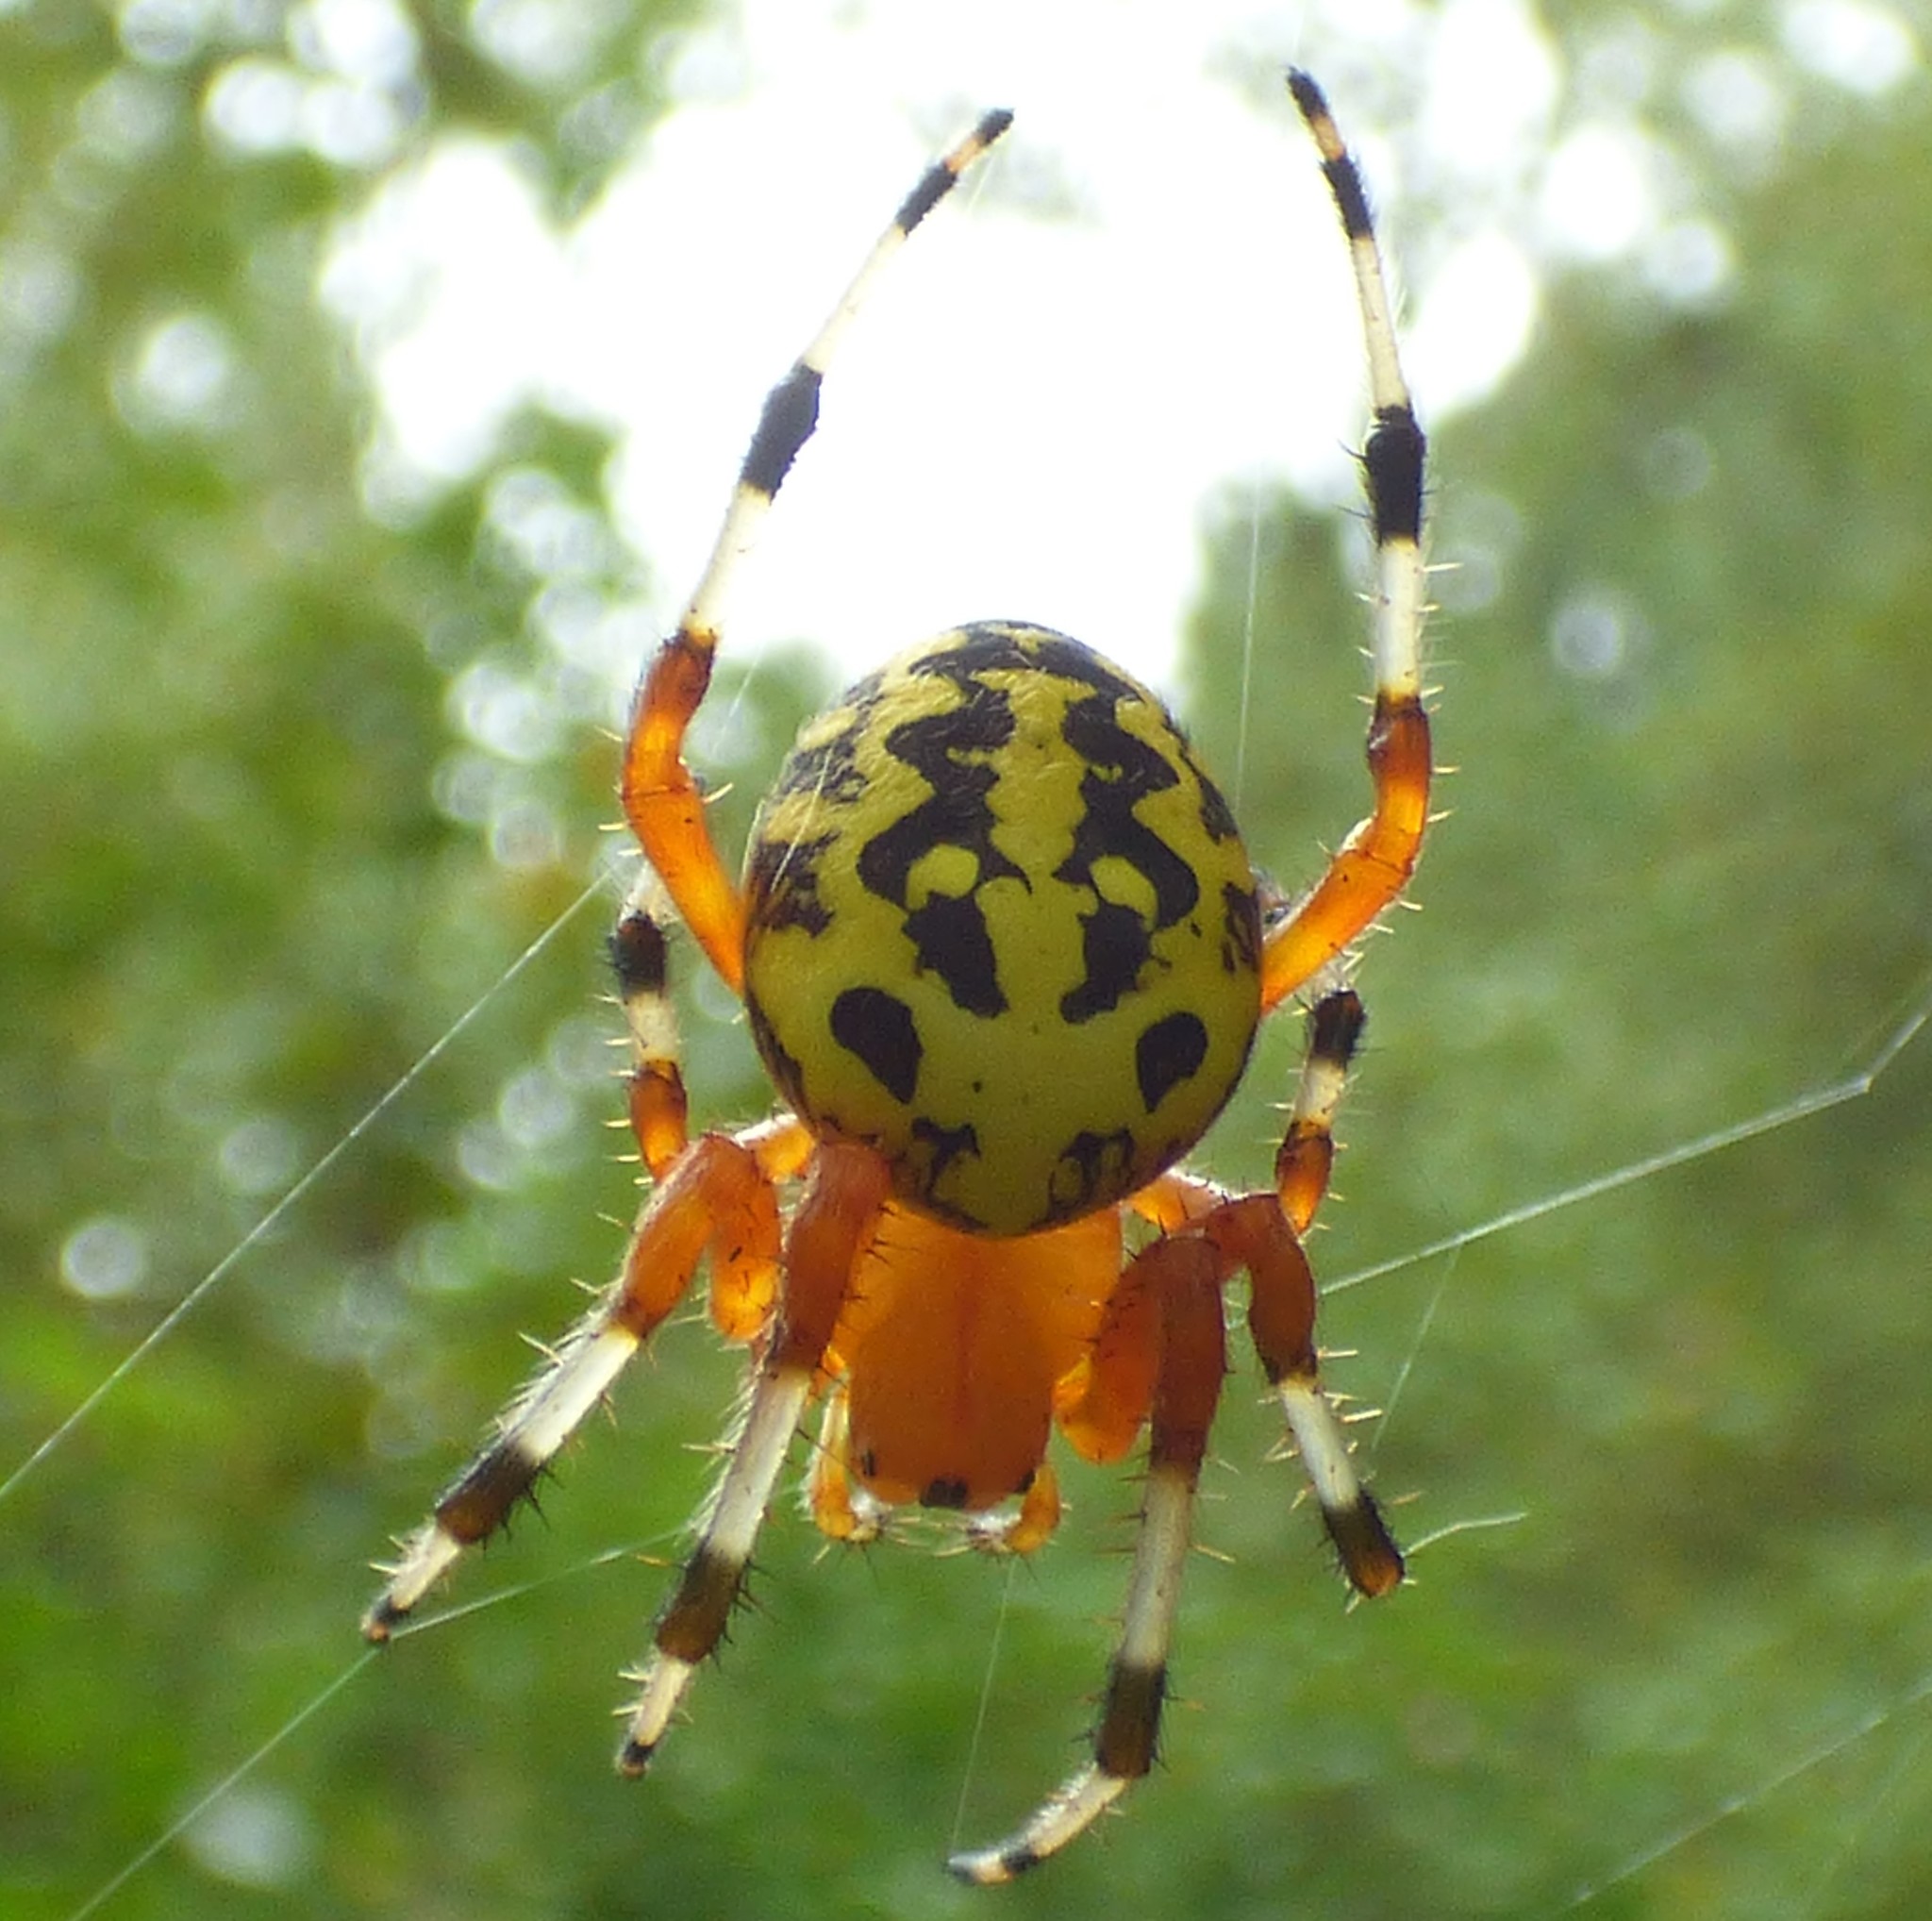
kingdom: Animalia
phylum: Arthropoda
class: Arachnida
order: Araneae
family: Araneidae
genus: Araneus
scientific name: Araneus marmoreus
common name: Marbled orbweaver
